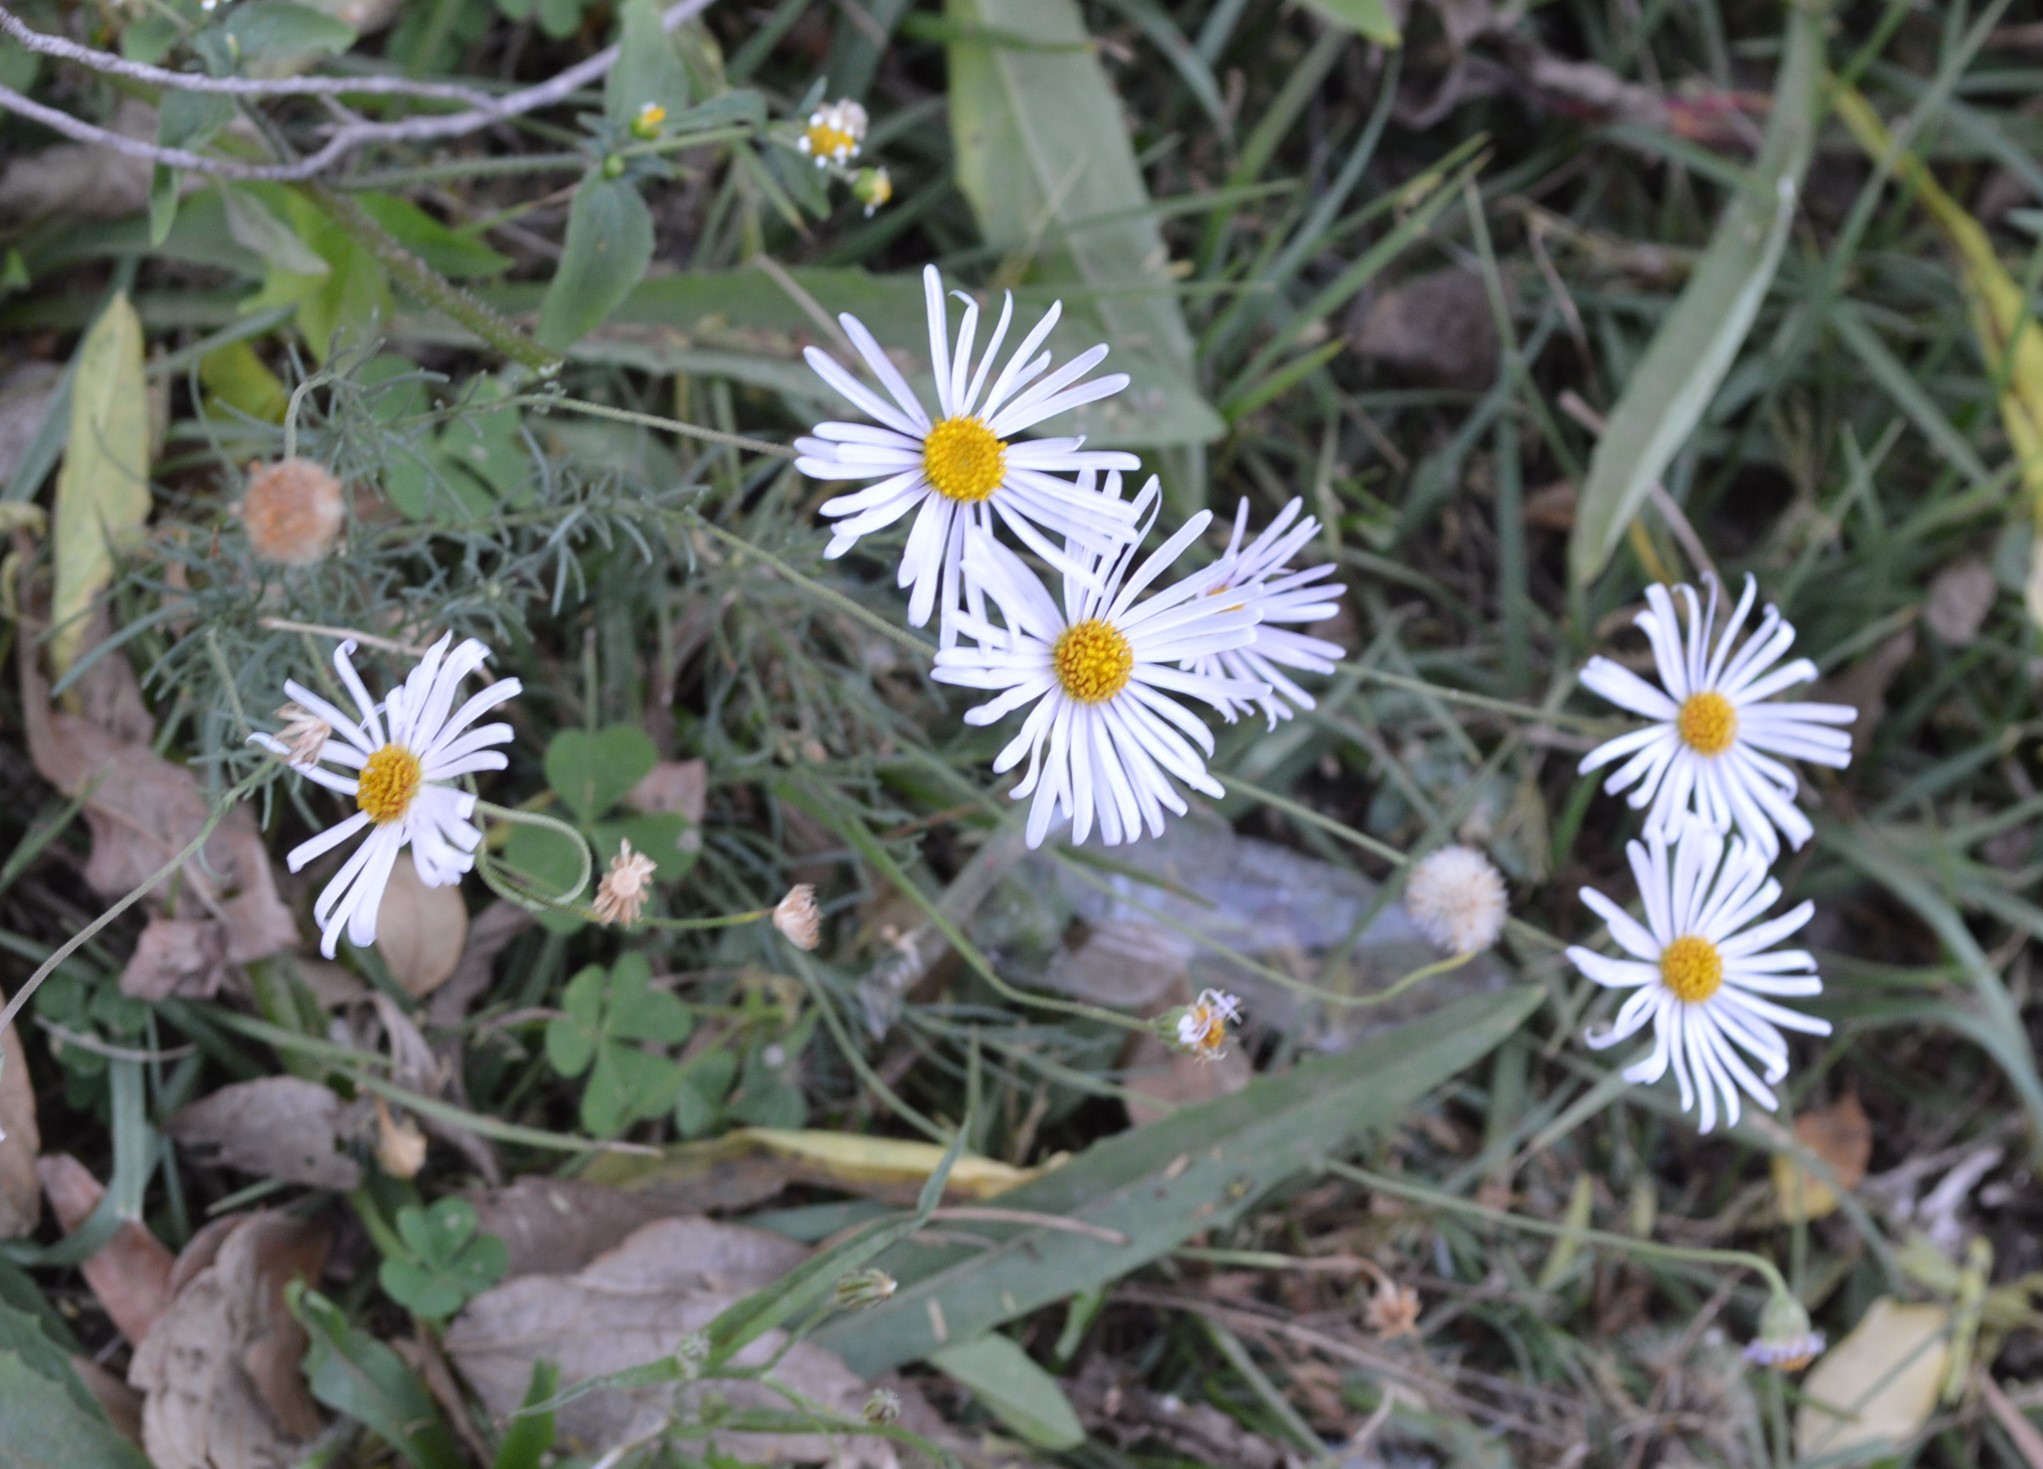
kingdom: Plantae
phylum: Tracheophyta
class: Magnoliopsida
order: Asterales
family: Asteraceae
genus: Felicia
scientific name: Felicia muricata
